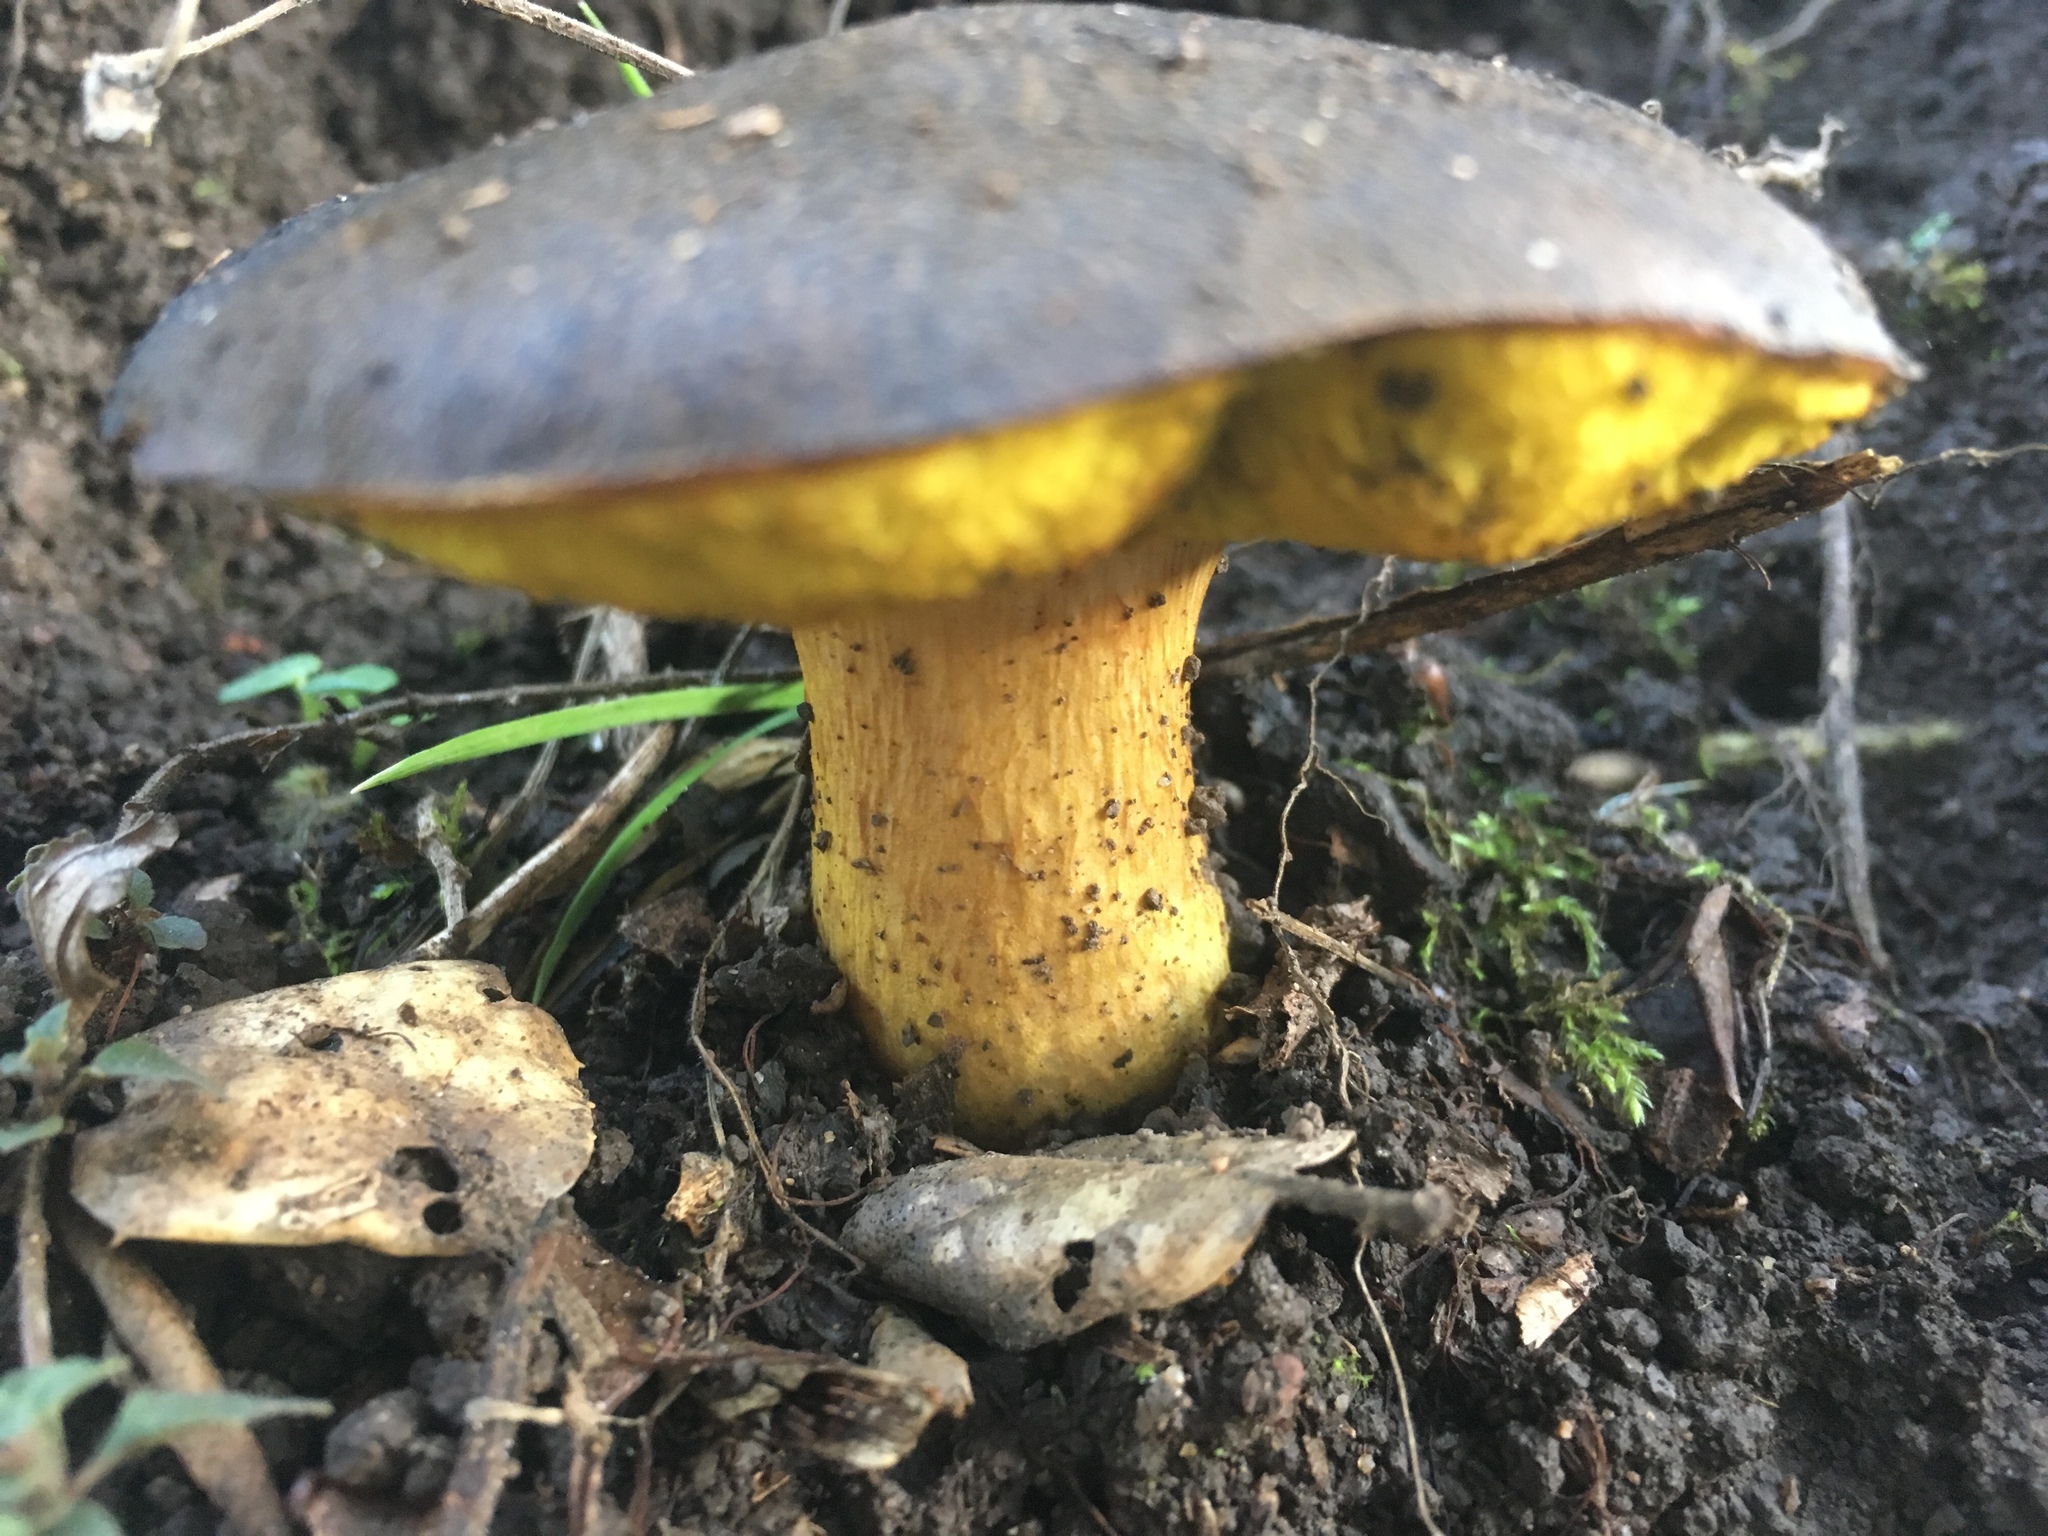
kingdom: Fungi
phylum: Basidiomycota
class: Agaricomycetes
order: Boletales
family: Boletaceae
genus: Aureoboletus
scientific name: Aureoboletus citriniporus
